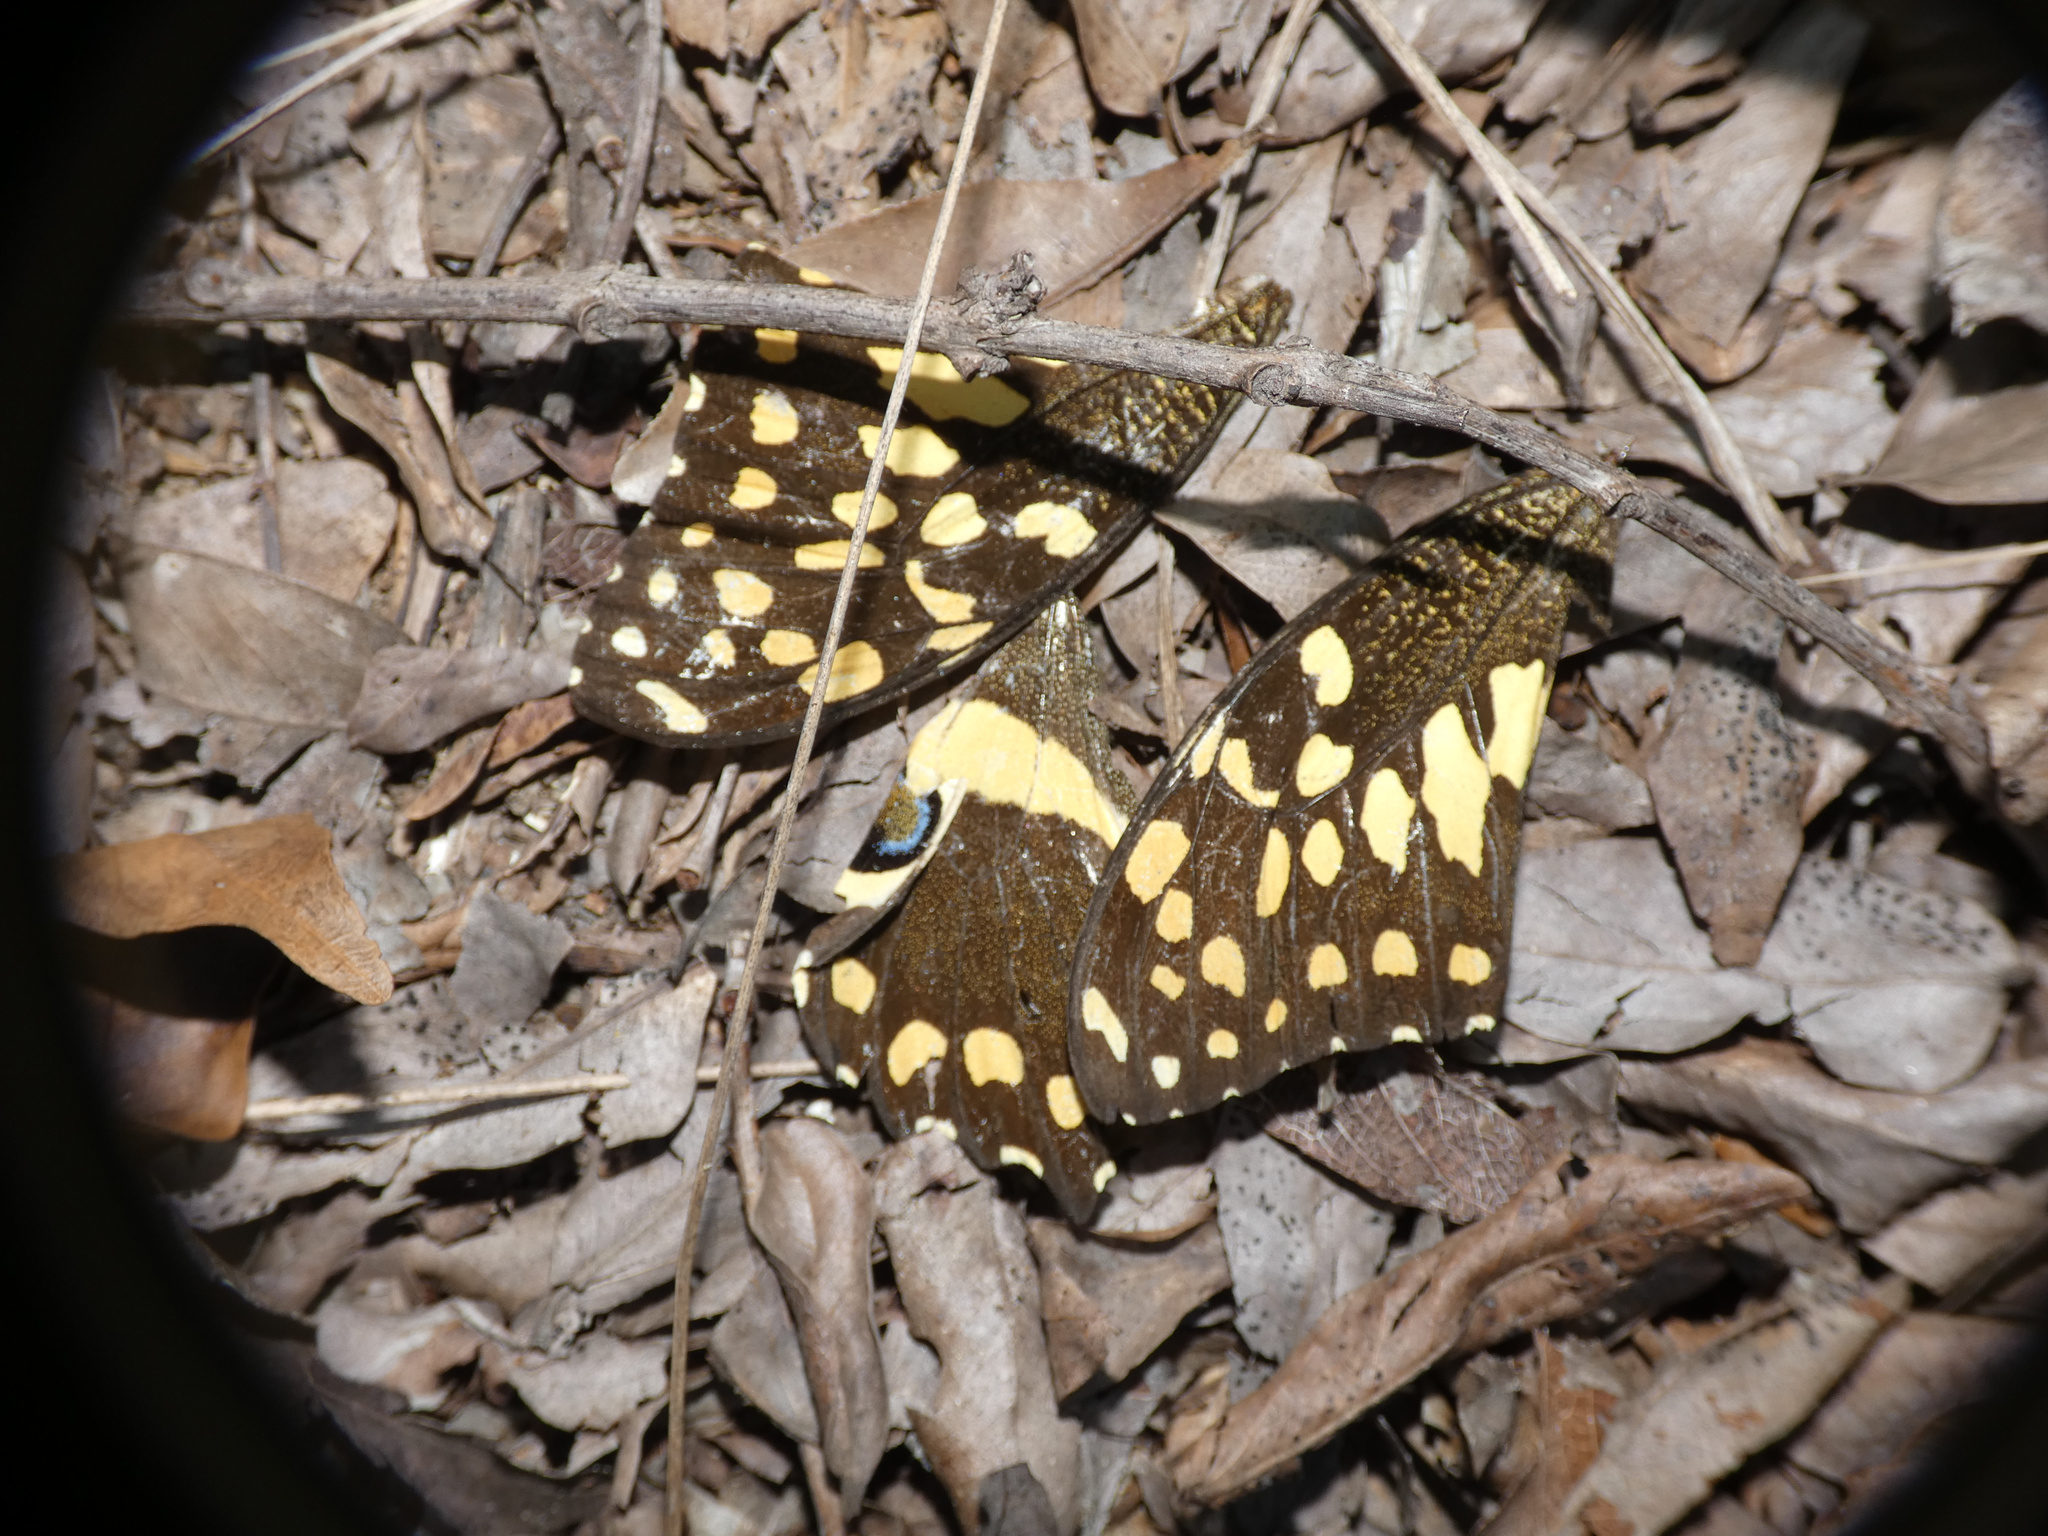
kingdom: Animalia
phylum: Arthropoda
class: Insecta
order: Lepidoptera
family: Papilionidae
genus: Papilio
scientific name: Papilio demodocus
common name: Christmas butterfly
